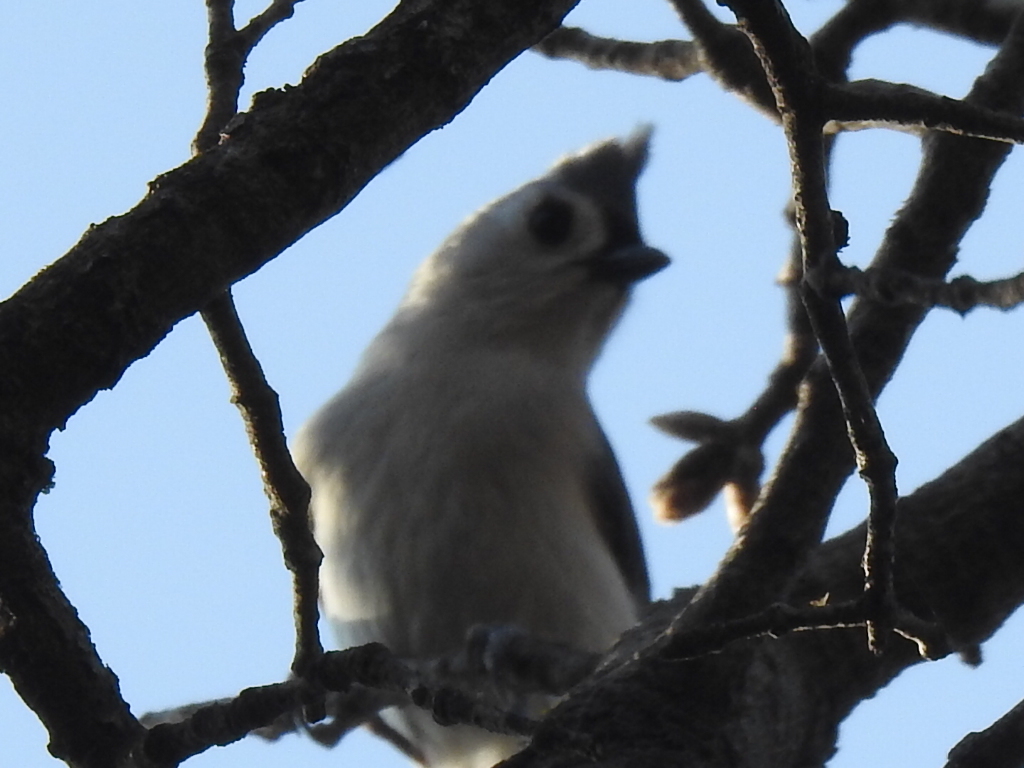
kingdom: Animalia
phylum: Chordata
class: Aves
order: Passeriformes
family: Paridae
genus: Baeolophus
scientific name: Baeolophus bicolor
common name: Tufted titmouse
